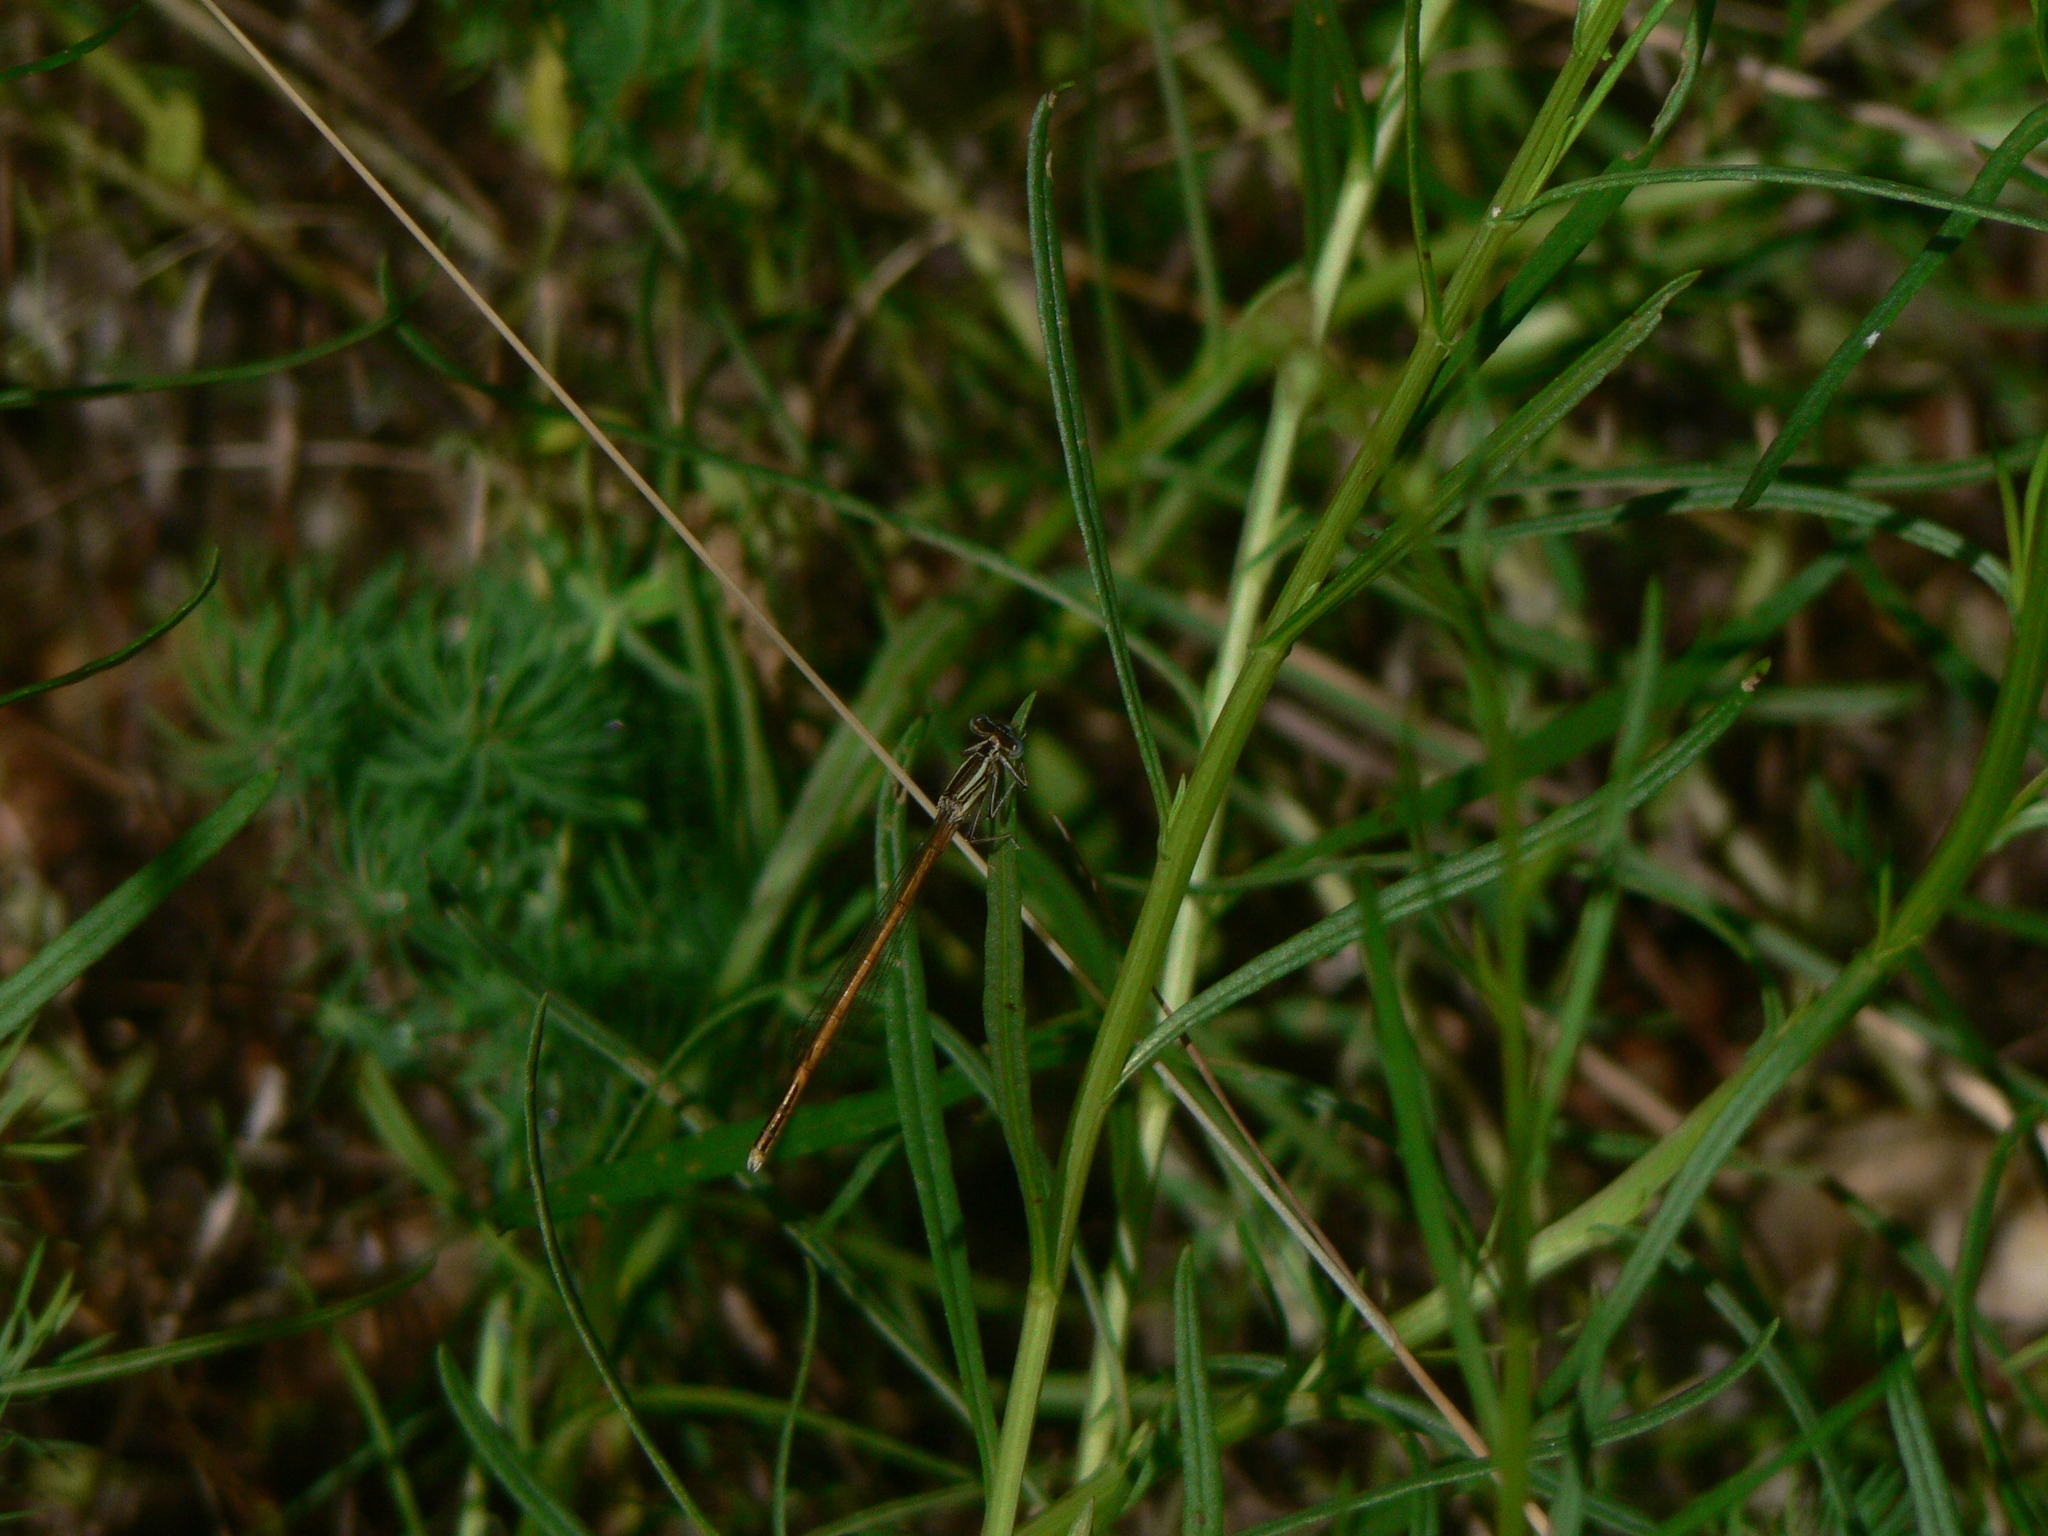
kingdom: Animalia
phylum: Arthropoda
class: Insecta
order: Odonata
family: Platycnemididae
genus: Platycnemis
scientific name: Platycnemis acutipennis
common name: Orange featherleg
